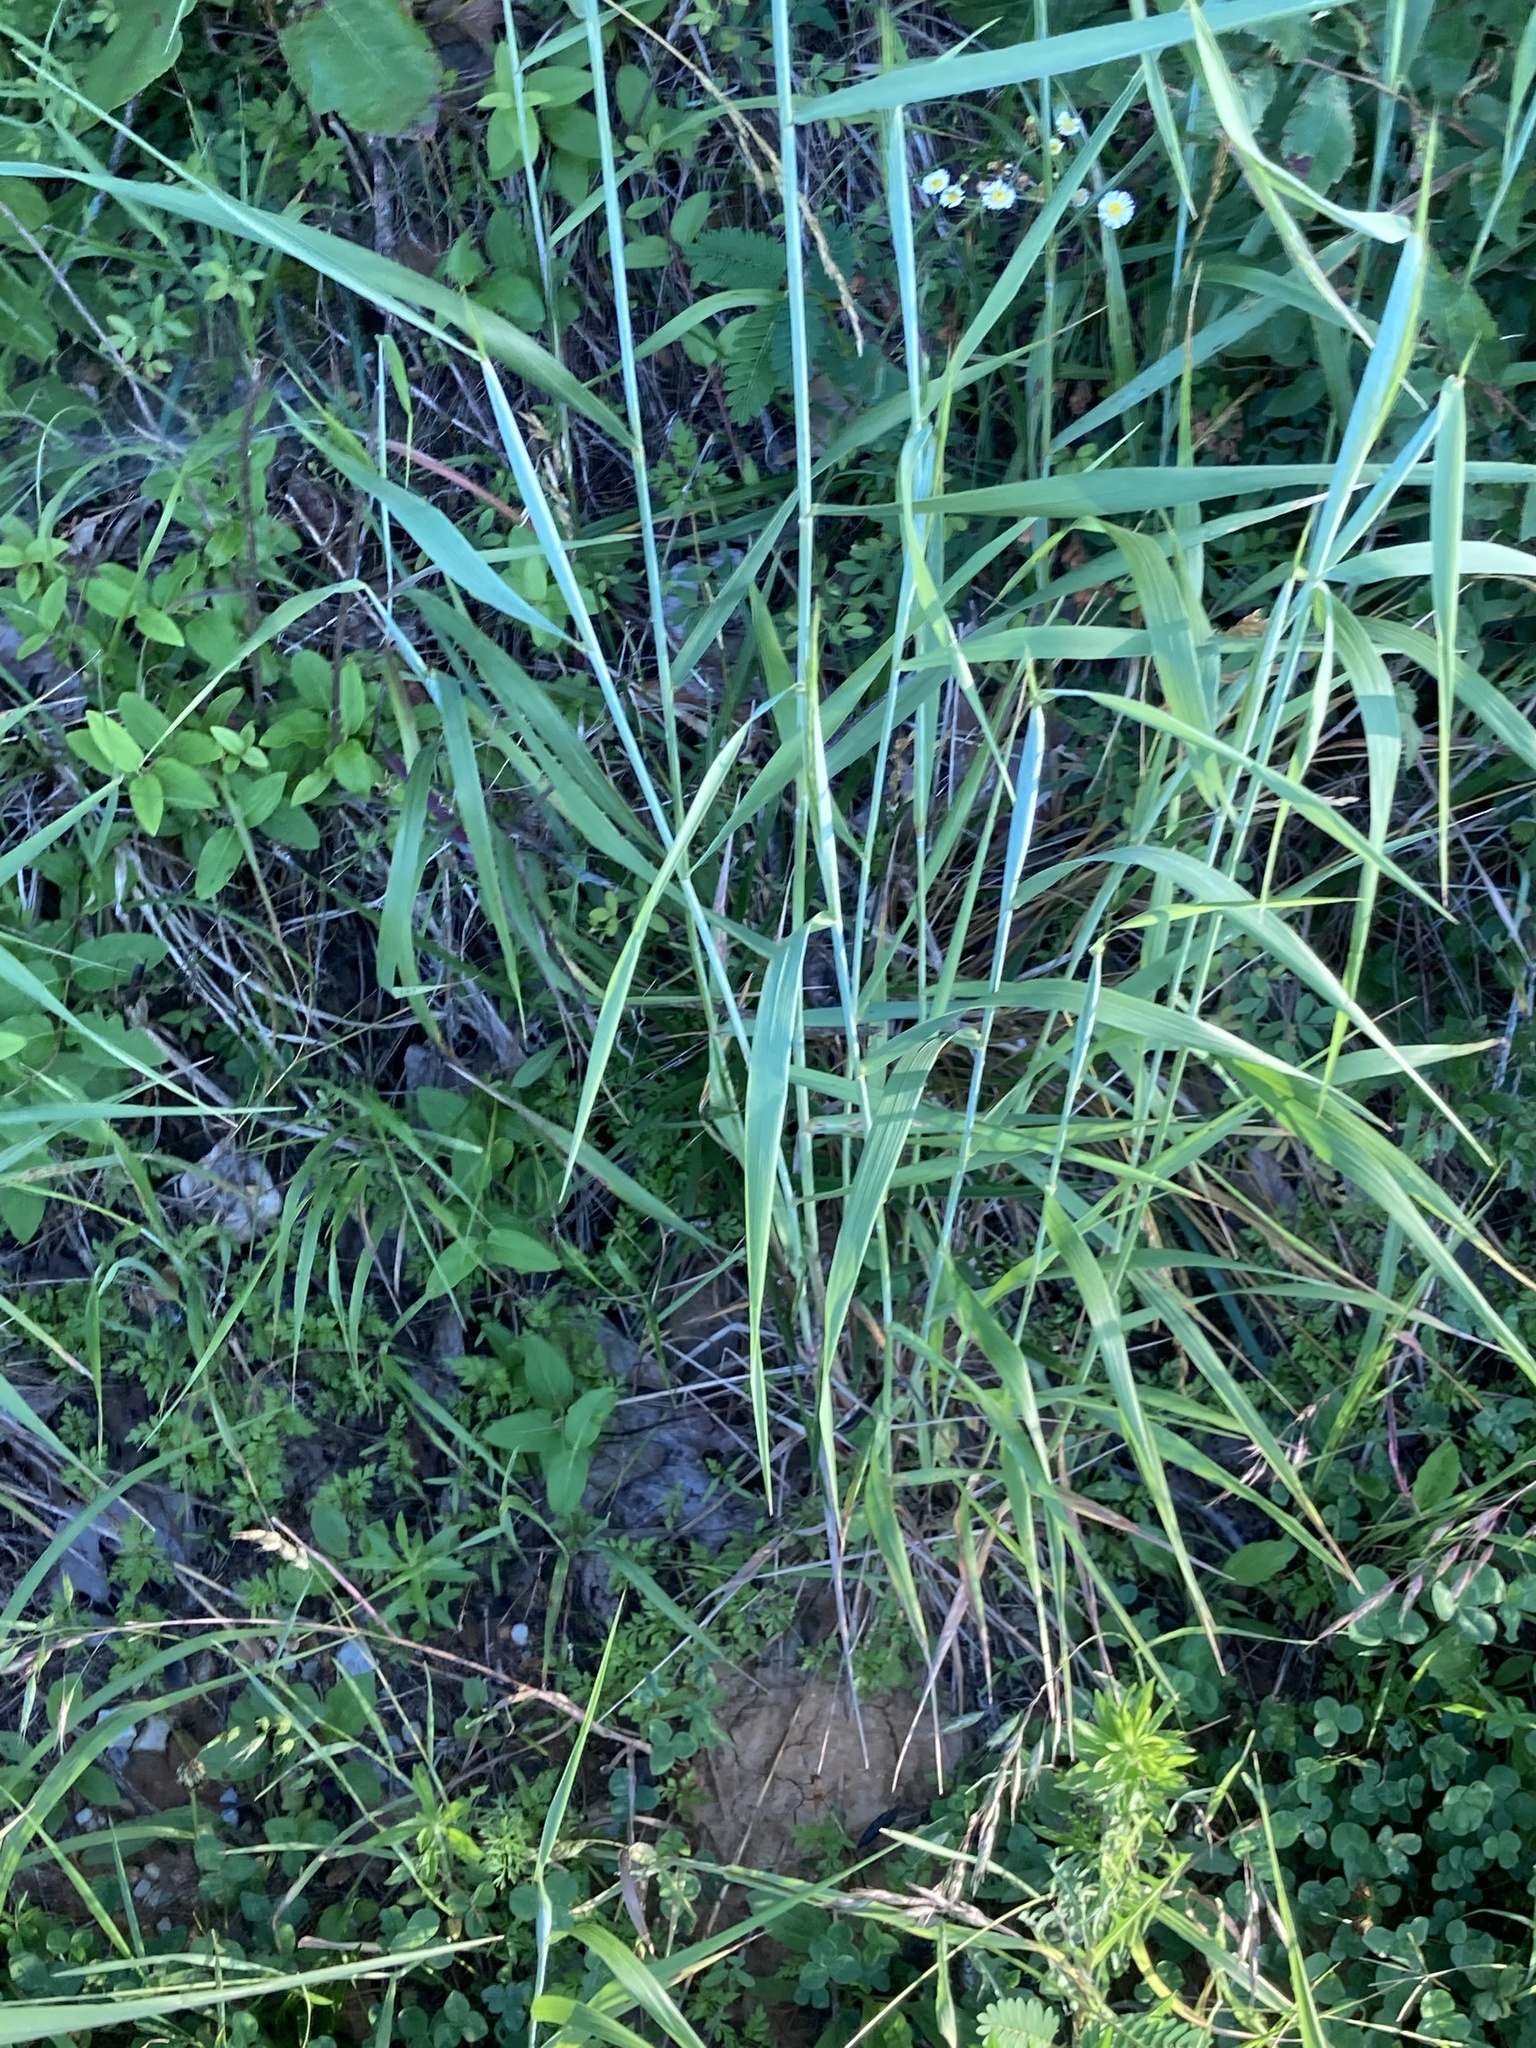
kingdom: Plantae
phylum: Tracheophyta
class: Liliopsida
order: Poales
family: Poaceae
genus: Elymus
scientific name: Elymus virginicus
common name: Common eastern wildrye
